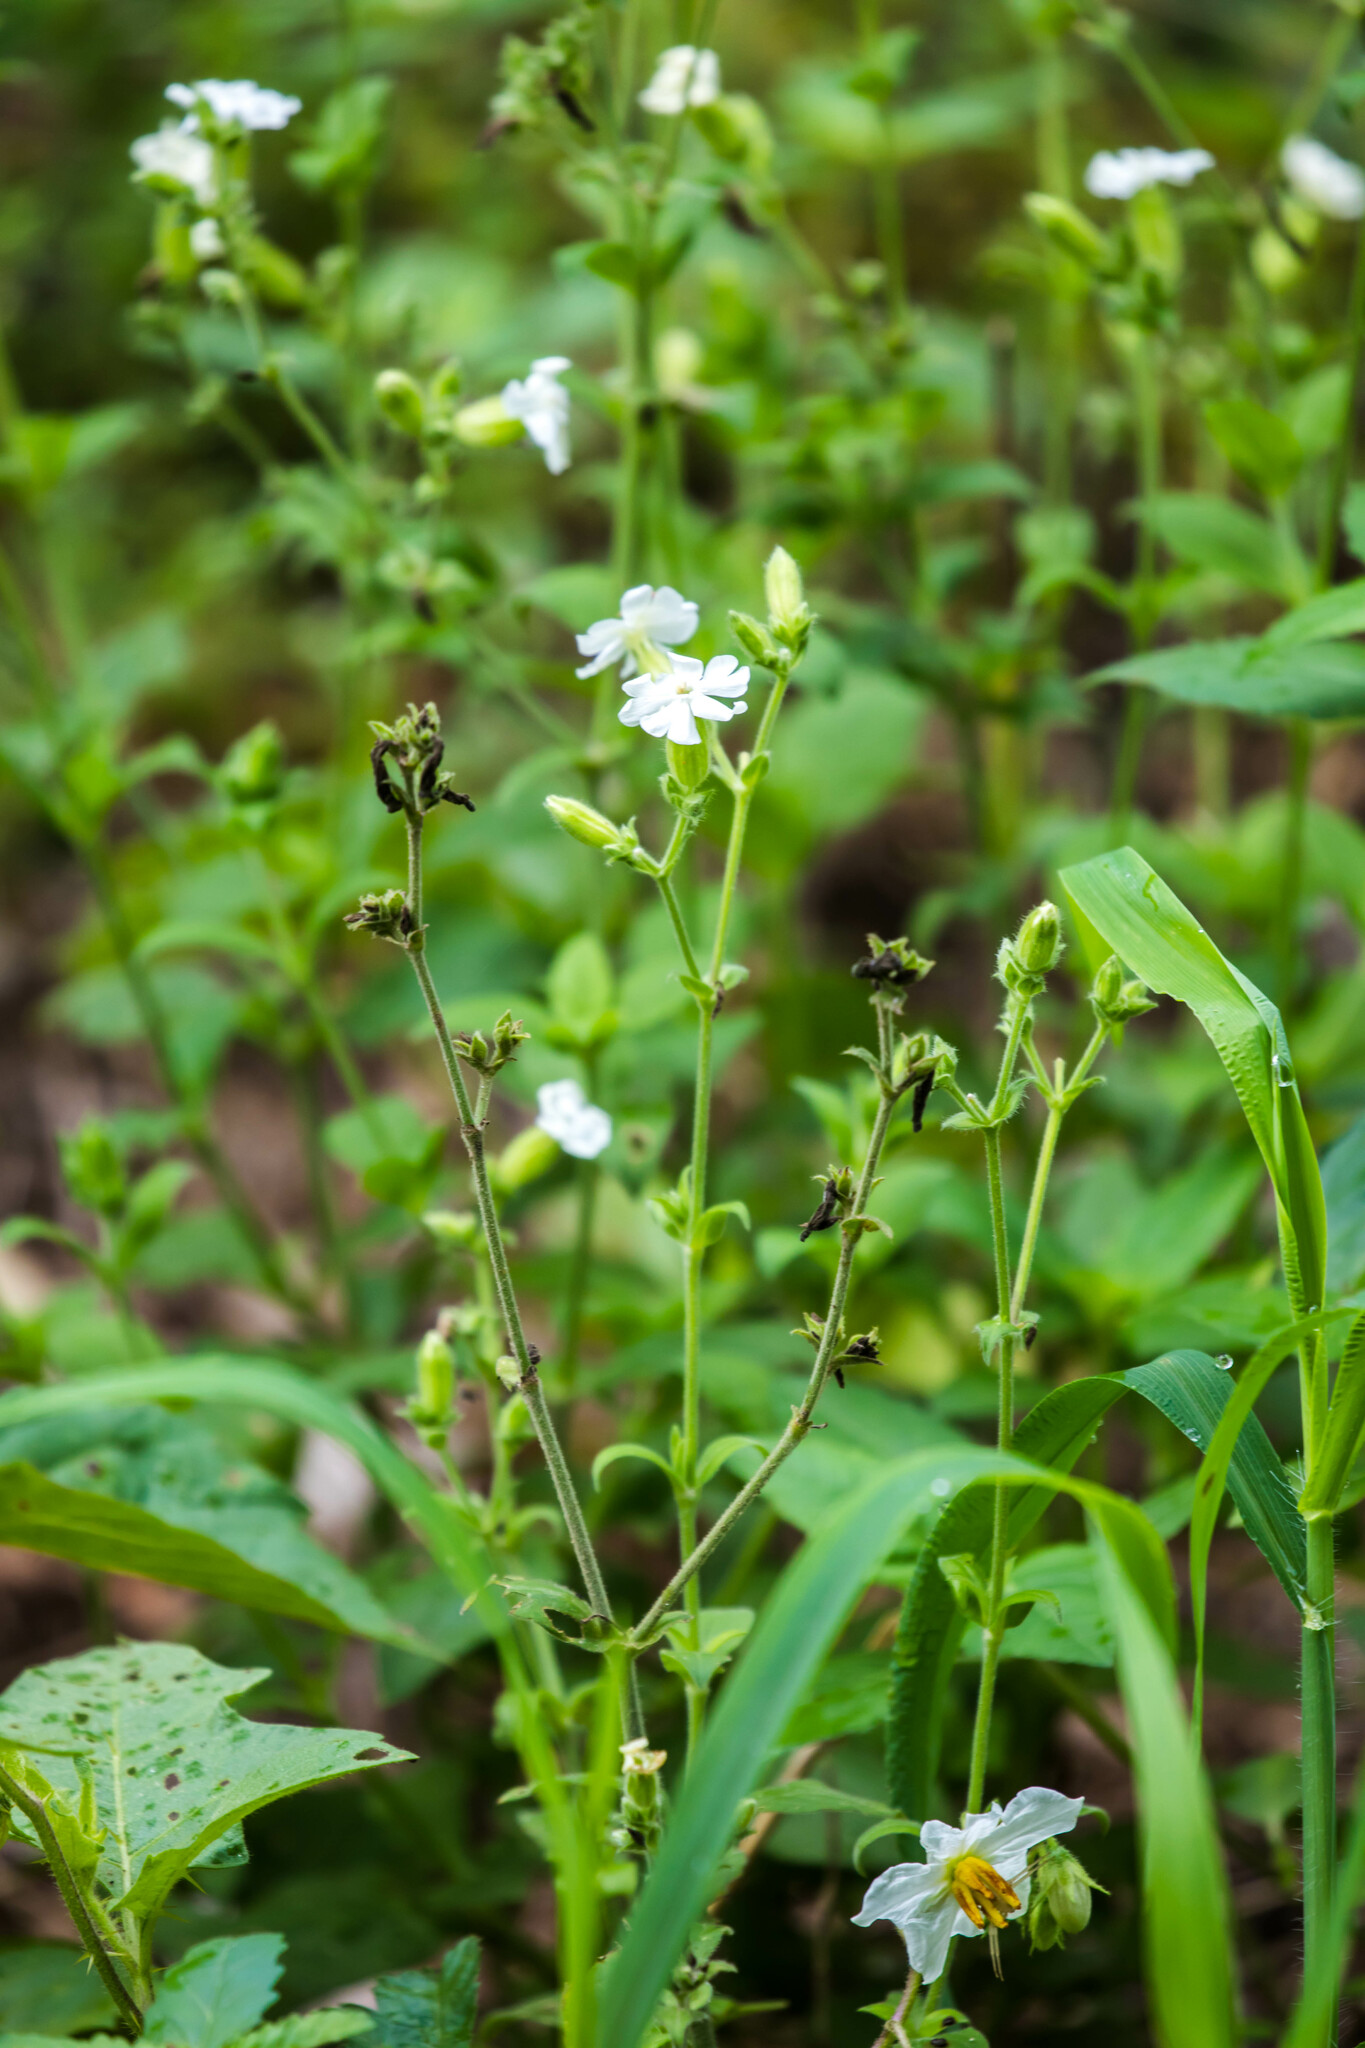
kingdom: Plantae
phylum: Tracheophyta
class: Magnoliopsida
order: Caryophyllales
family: Caryophyllaceae
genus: Silene
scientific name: Silene latifolia
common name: White campion
